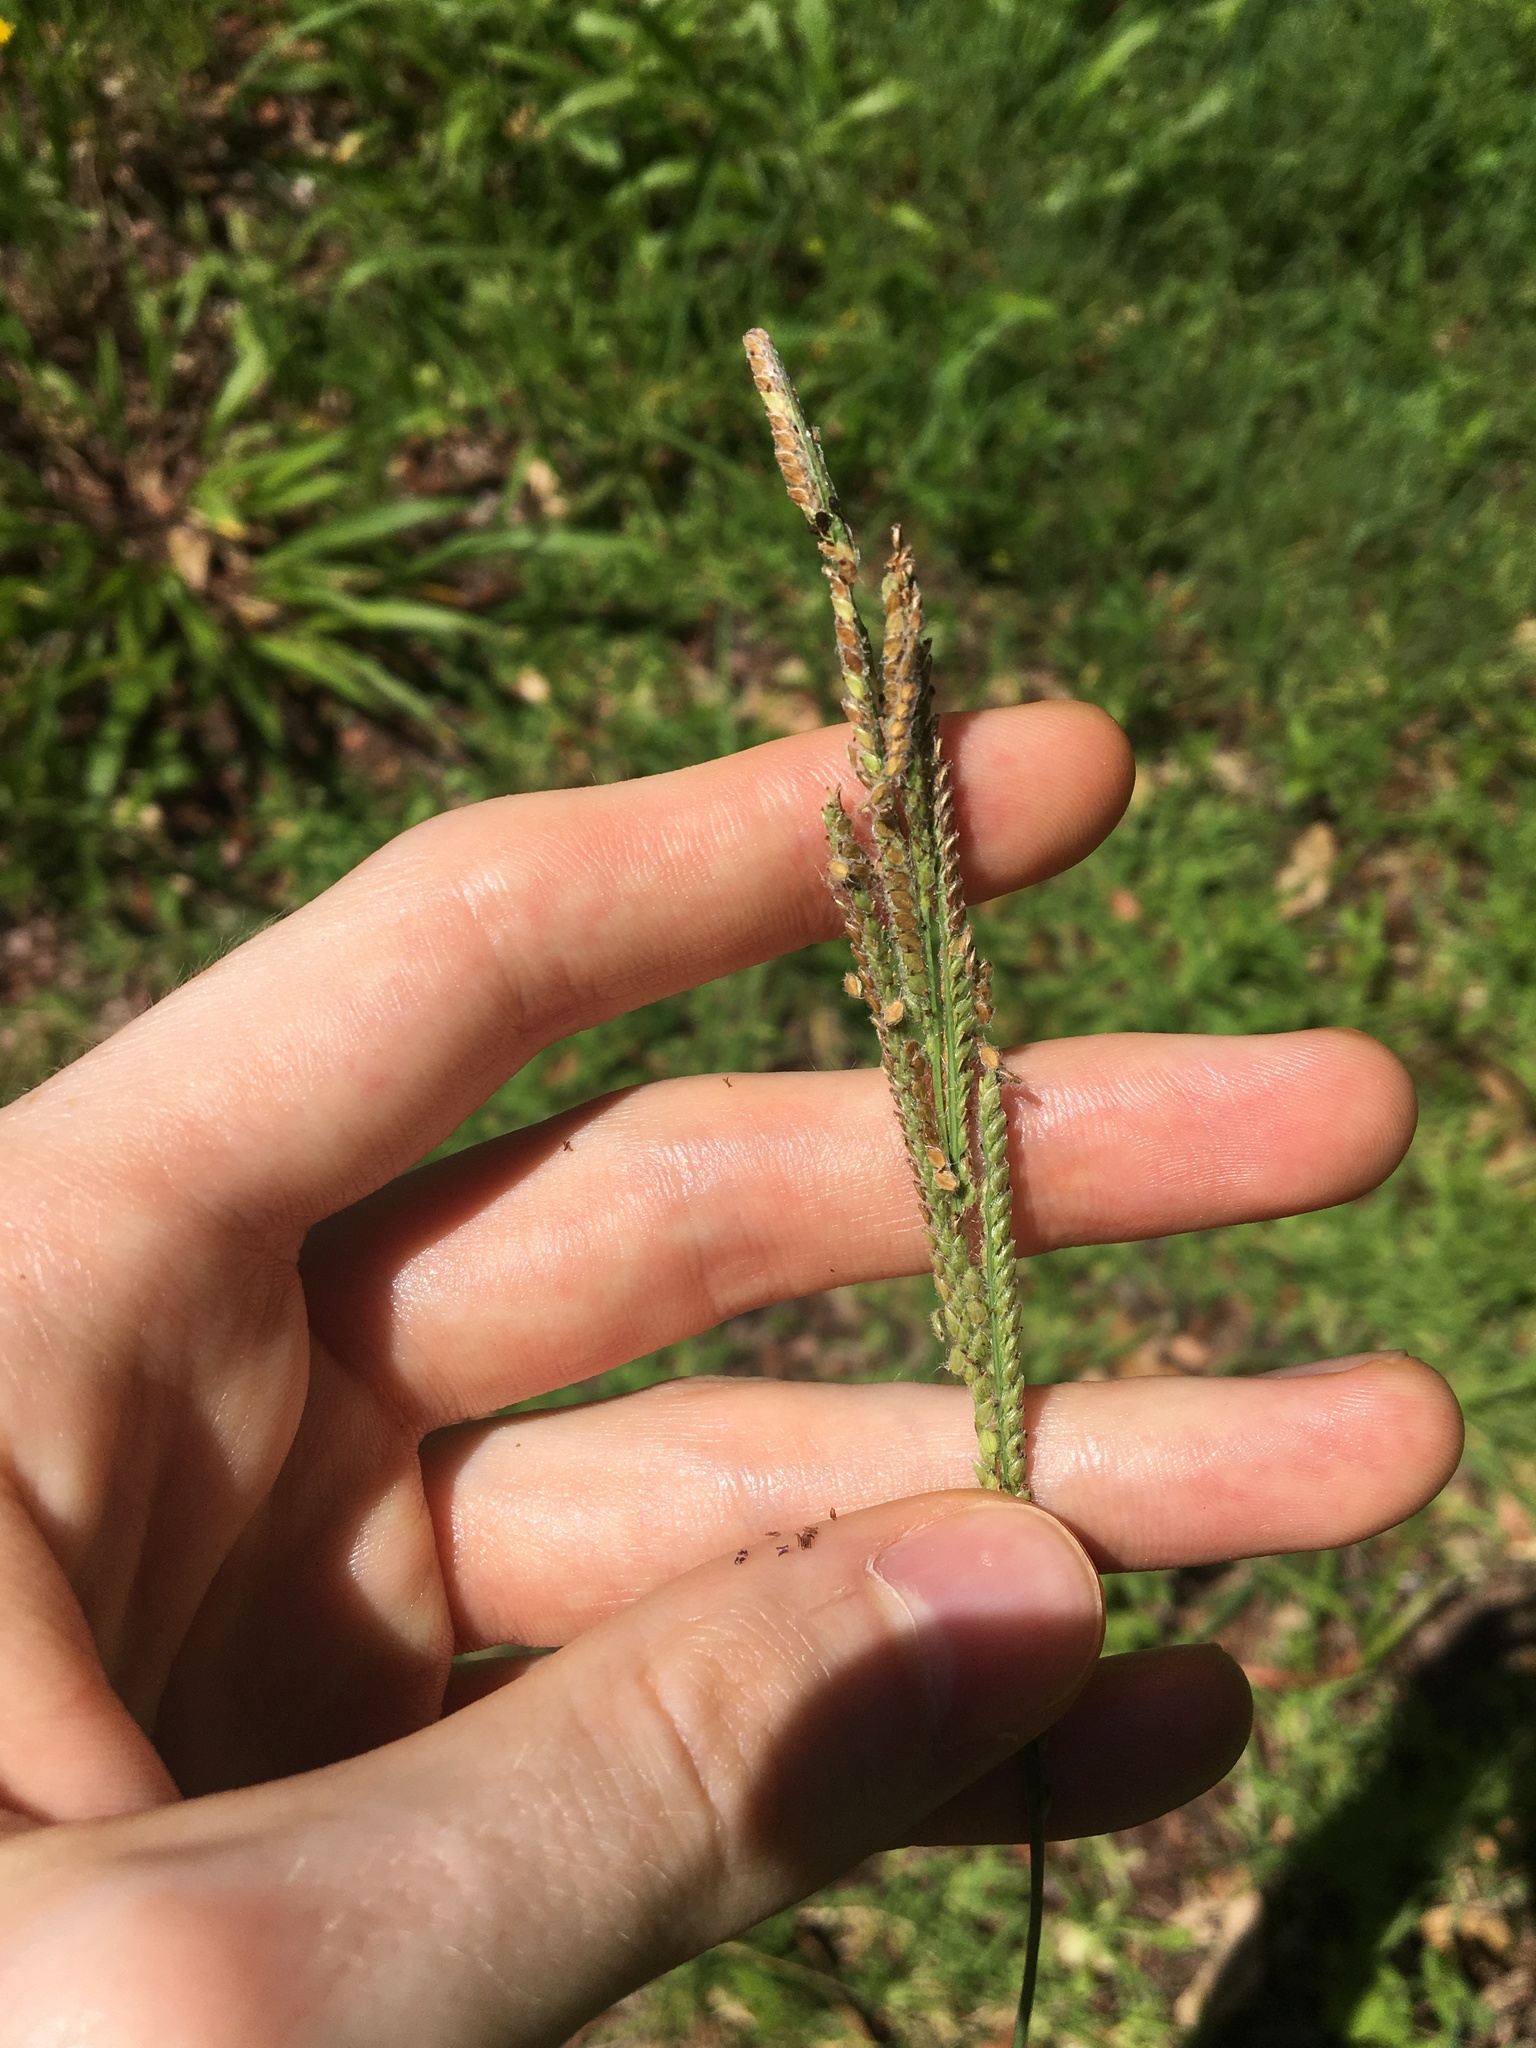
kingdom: Plantae
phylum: Tracheophyta
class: Liliopsida
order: Poales
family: Poaceae
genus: Paspalum
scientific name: Paspalum urvillei
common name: Vasey's grass
